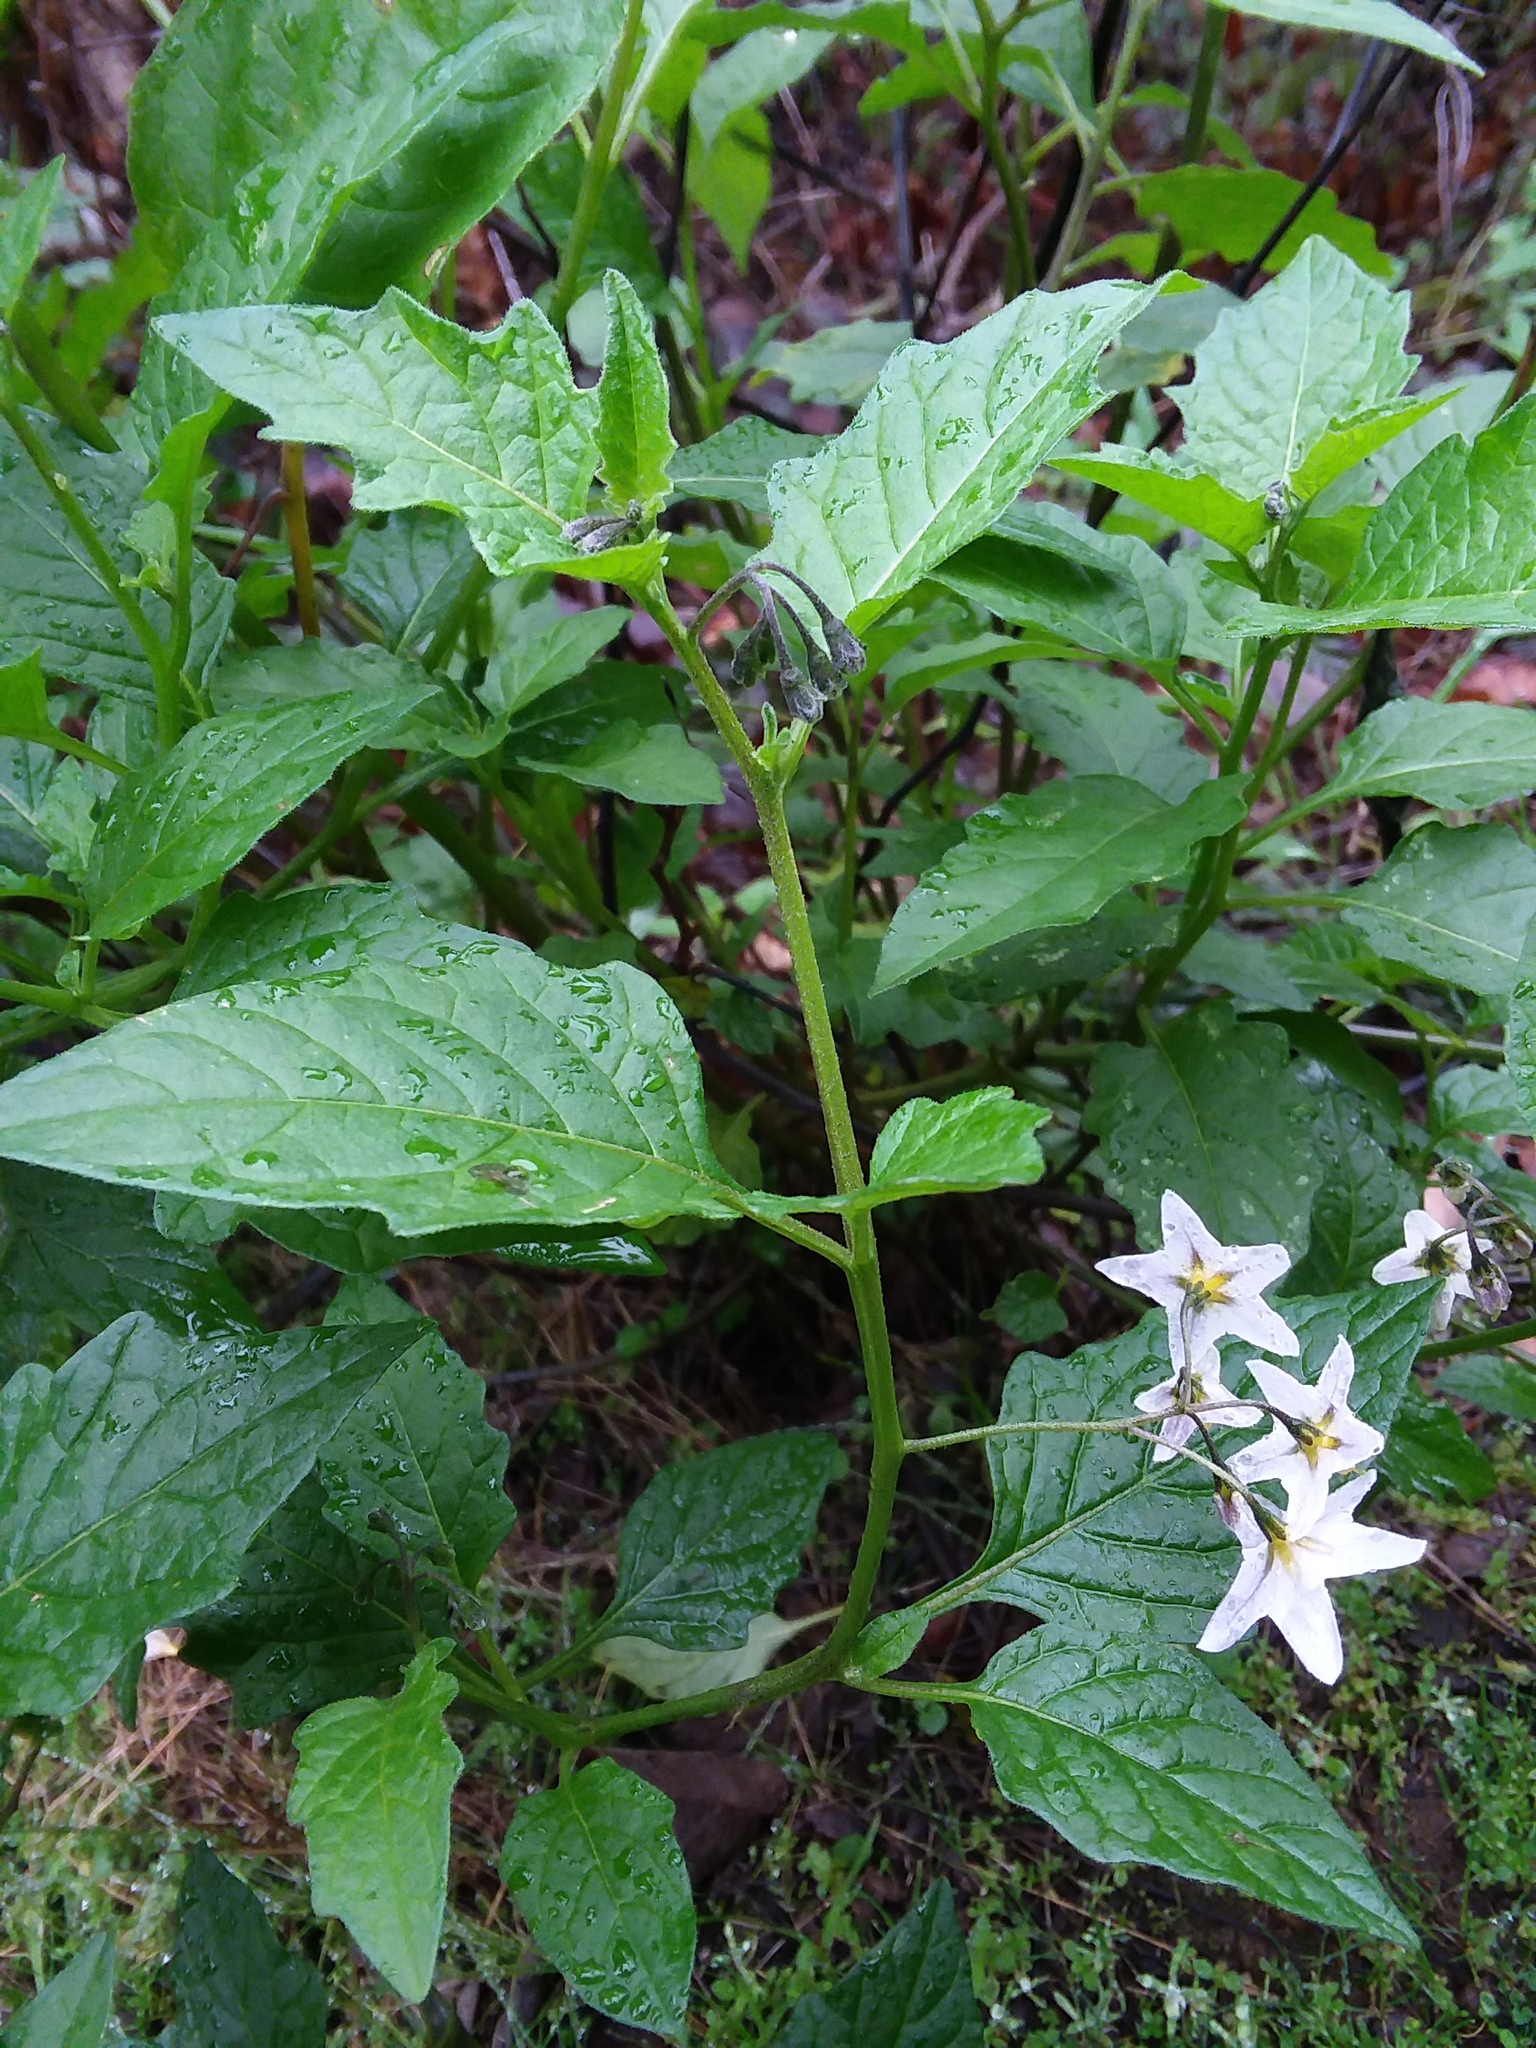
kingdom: Plantae
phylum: Tracheophyta
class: Magnoliopsida
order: Solanales
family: Solanaceae
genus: Solanum
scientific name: Solanum douglasii
